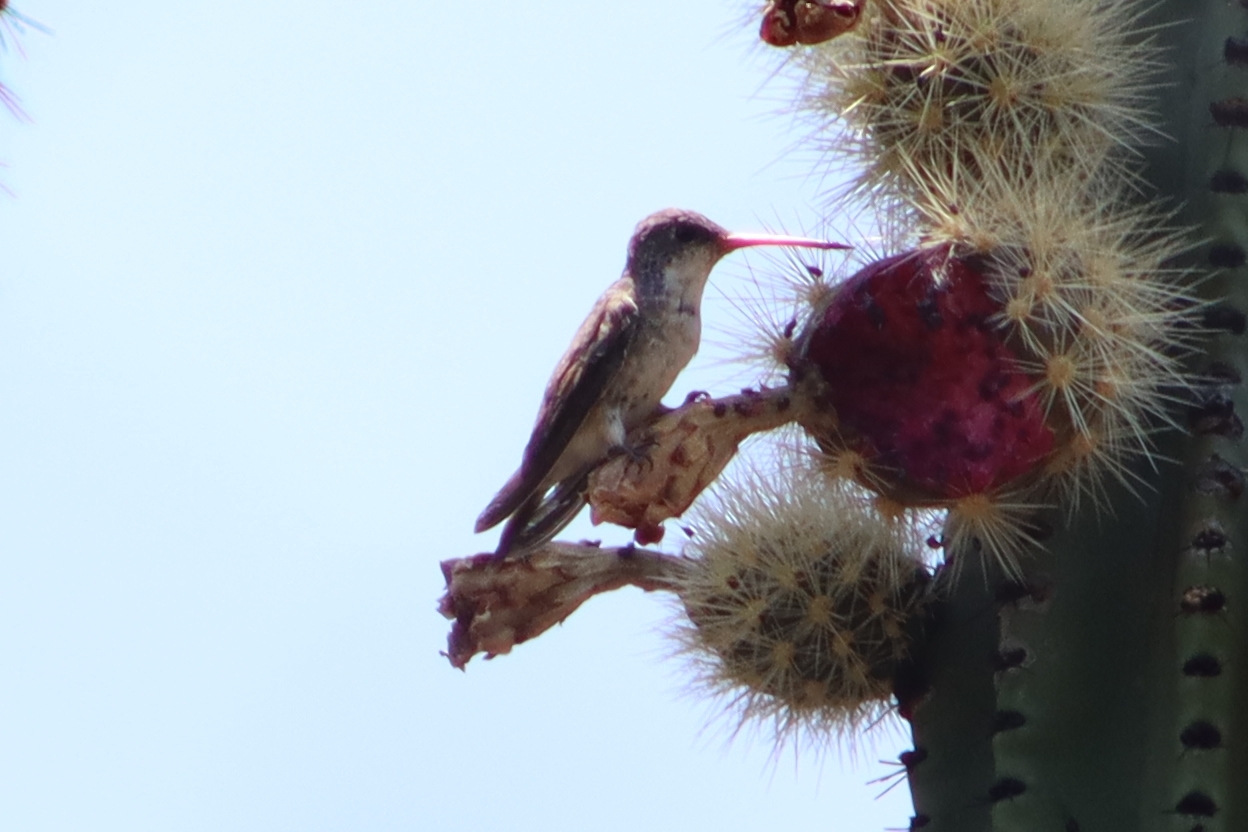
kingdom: Animalia
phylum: Chordata
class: Aves
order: Apodiformes
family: Trochilidae
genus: Leucolia
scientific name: Leucolia violiceps
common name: Violet-crowned hummingbird
